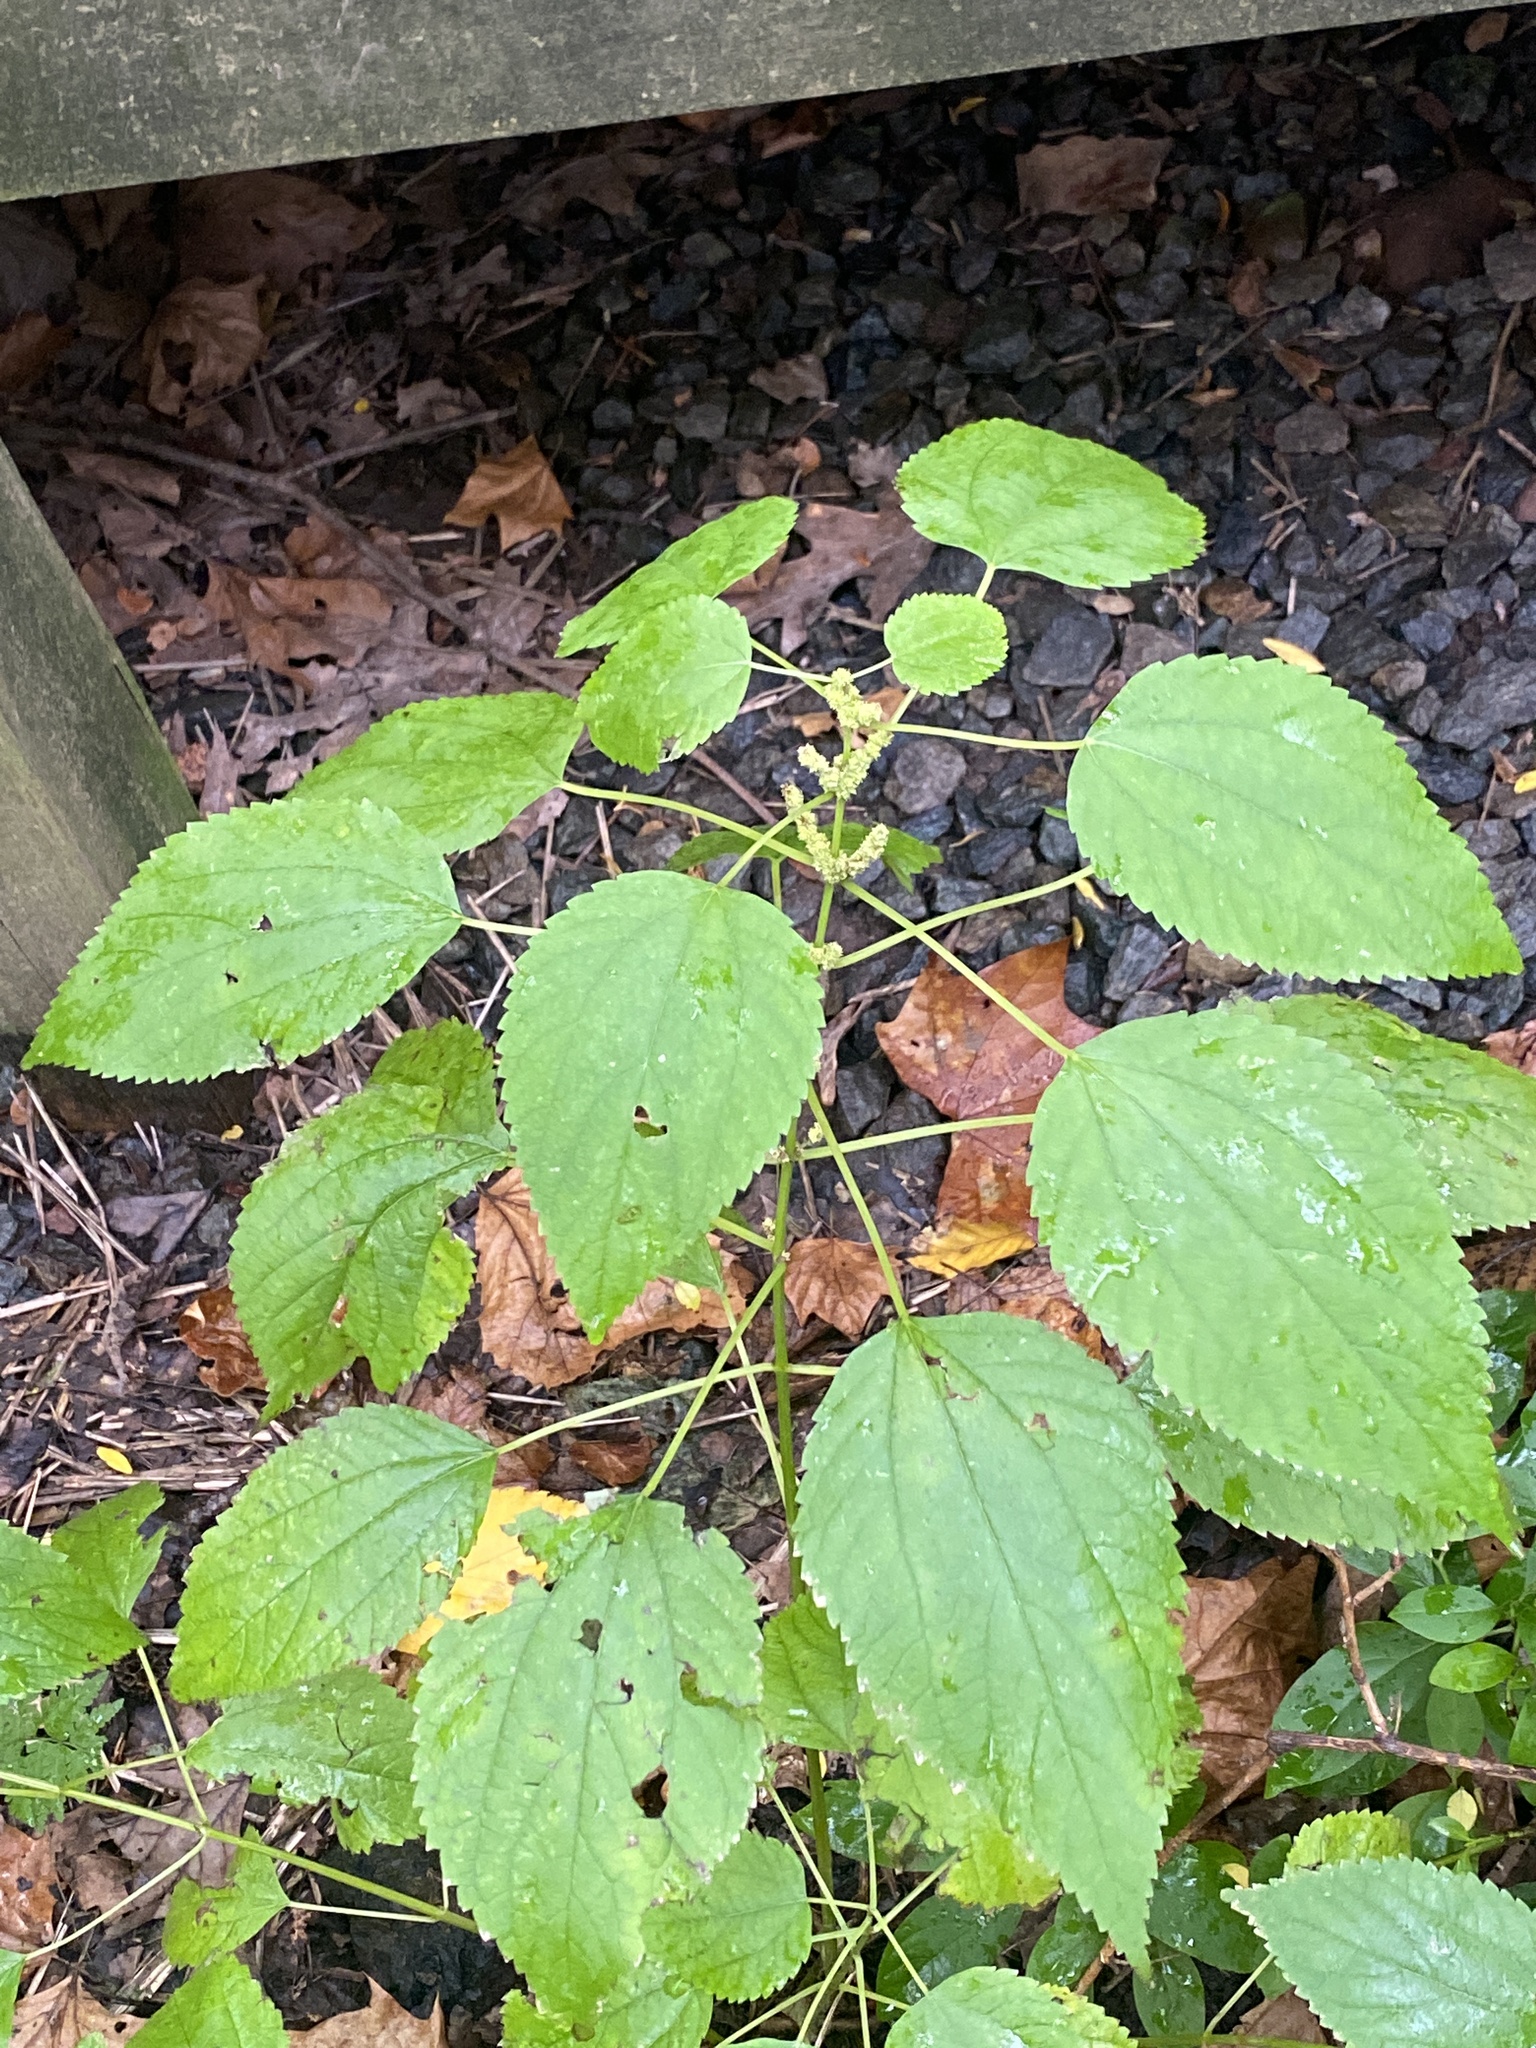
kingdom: Plantae
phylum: Tracheophyta
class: Magnoliopsida
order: Rosales
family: Urticaceae
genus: Boehmeria
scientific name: Boehmeria cylindrica
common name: Bog-hemp
